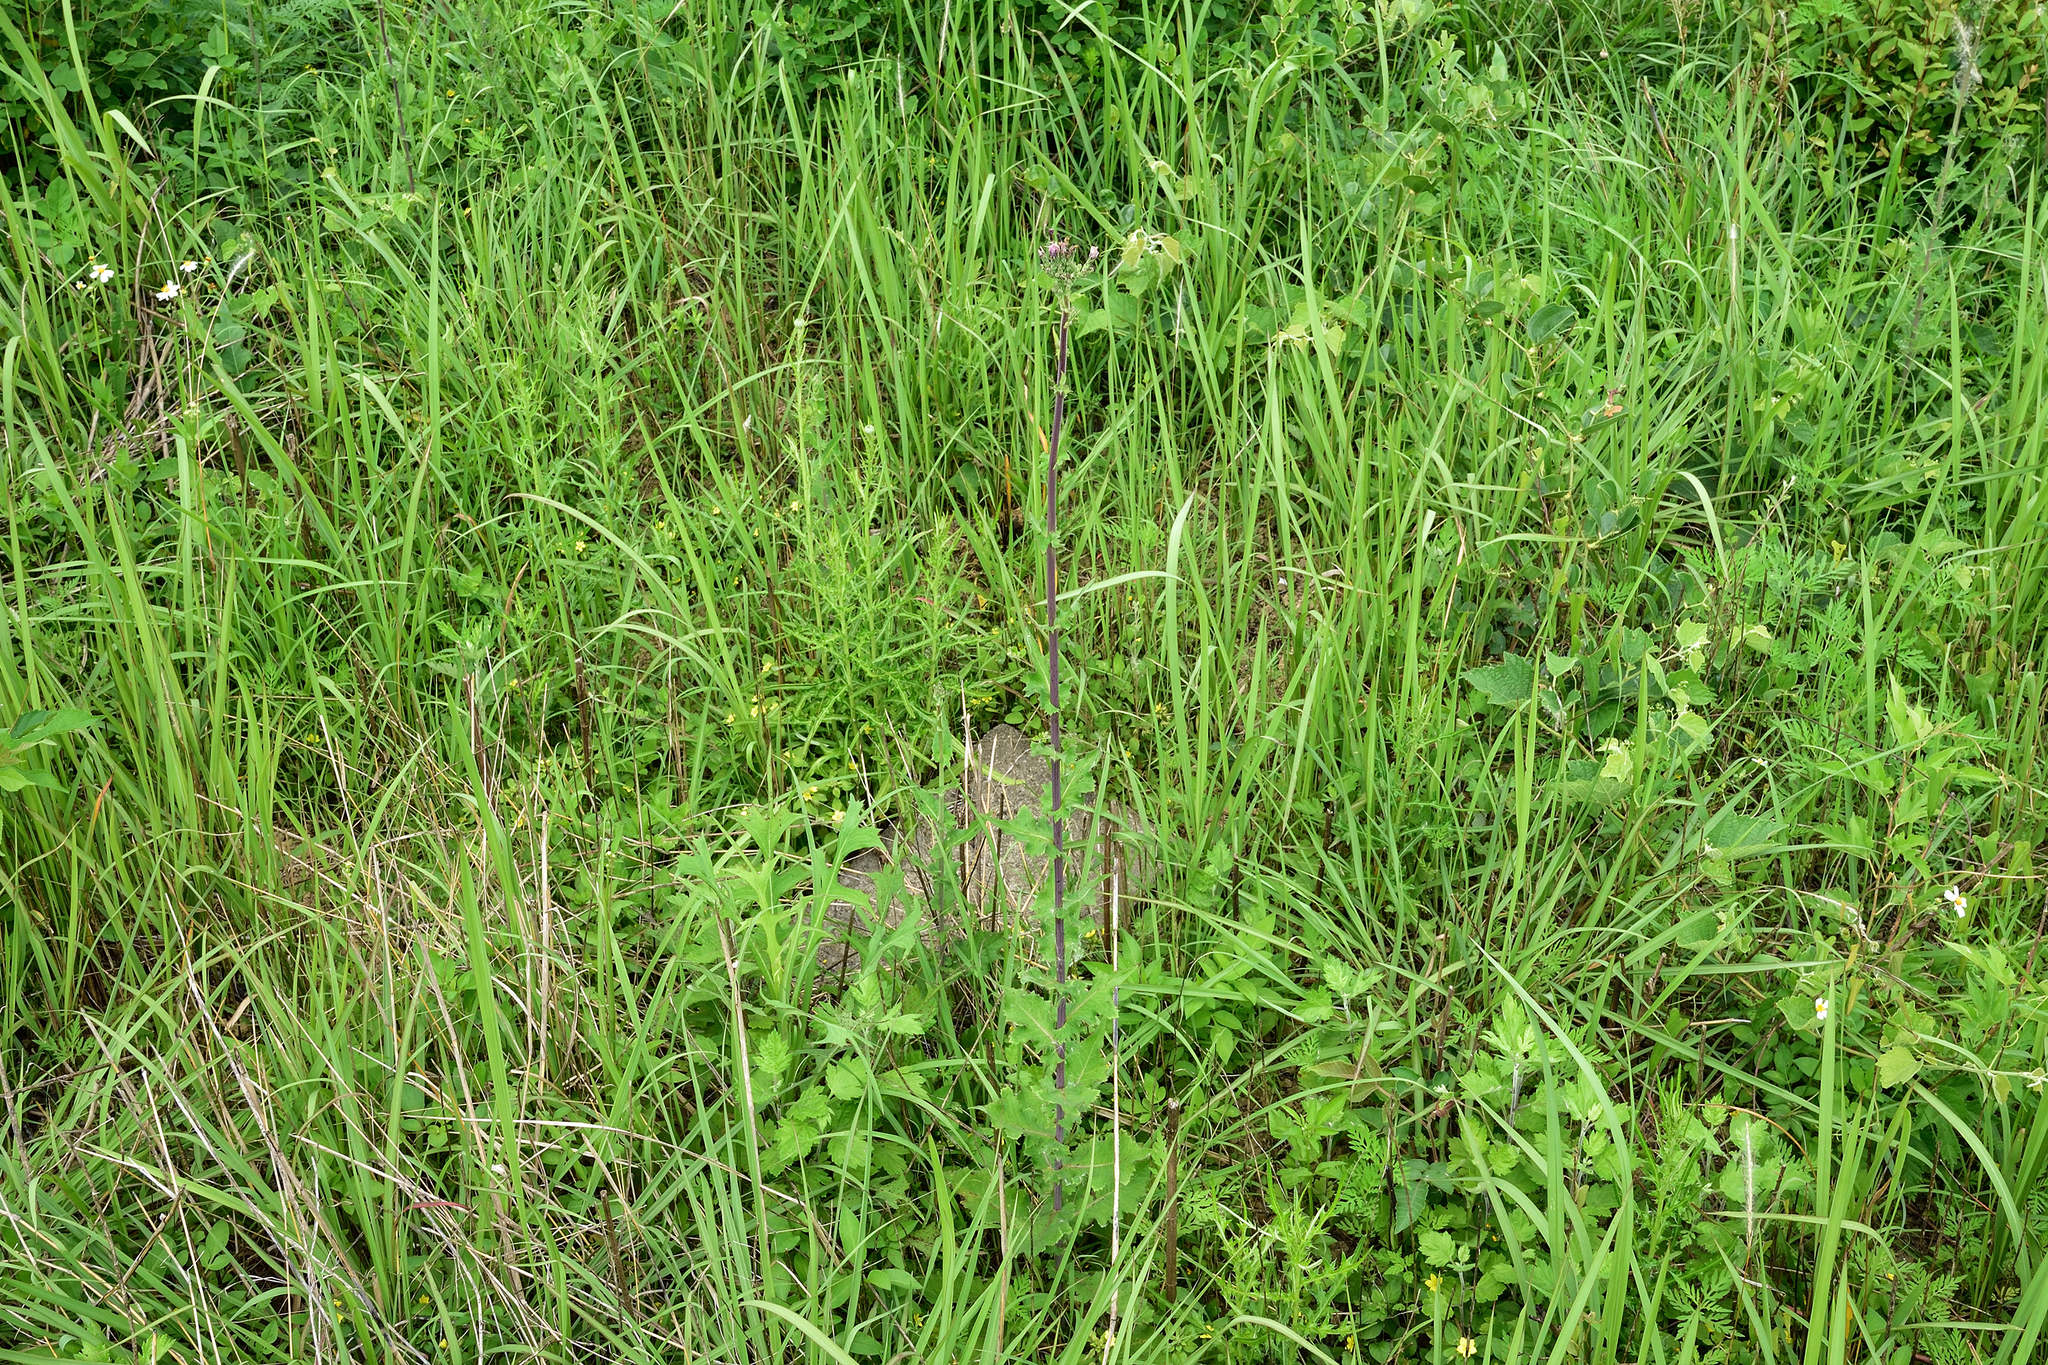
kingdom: Plantae
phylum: Tracheophyta
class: Magnoliopsida
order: Asterales
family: Asteraceae
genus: Lactuca
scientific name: Lactuca formosana
